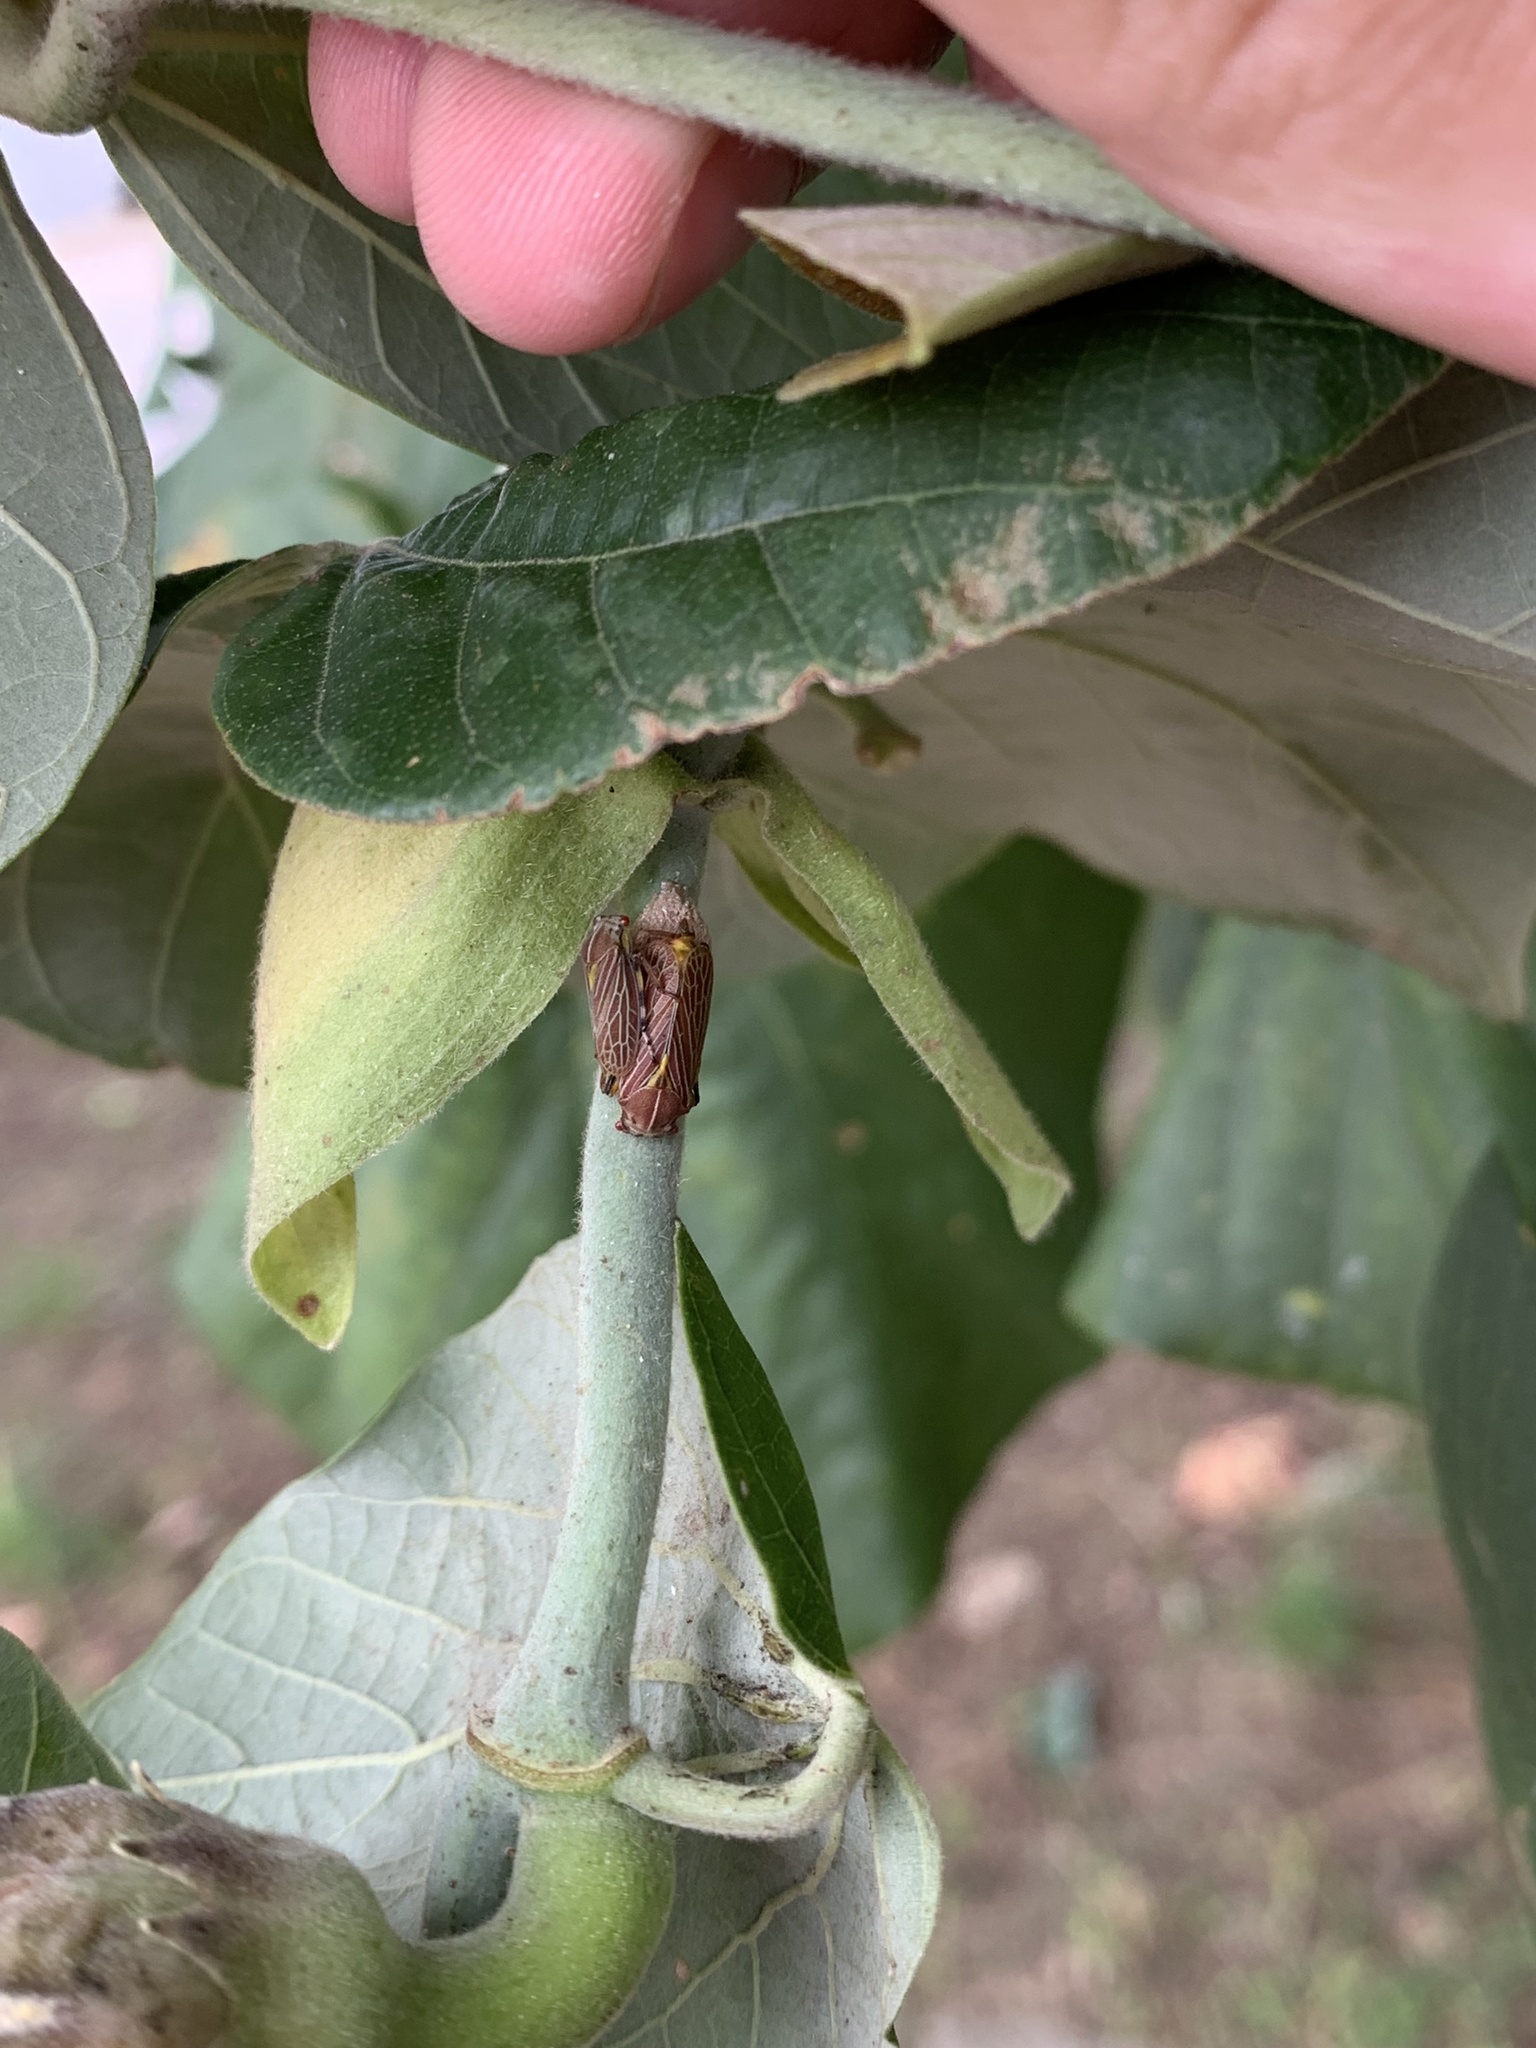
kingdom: Animalia
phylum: Arthropoda
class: Insecta
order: Hemiptera
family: Aetalionidae
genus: Aetalion
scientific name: Aetalion reticulatum
